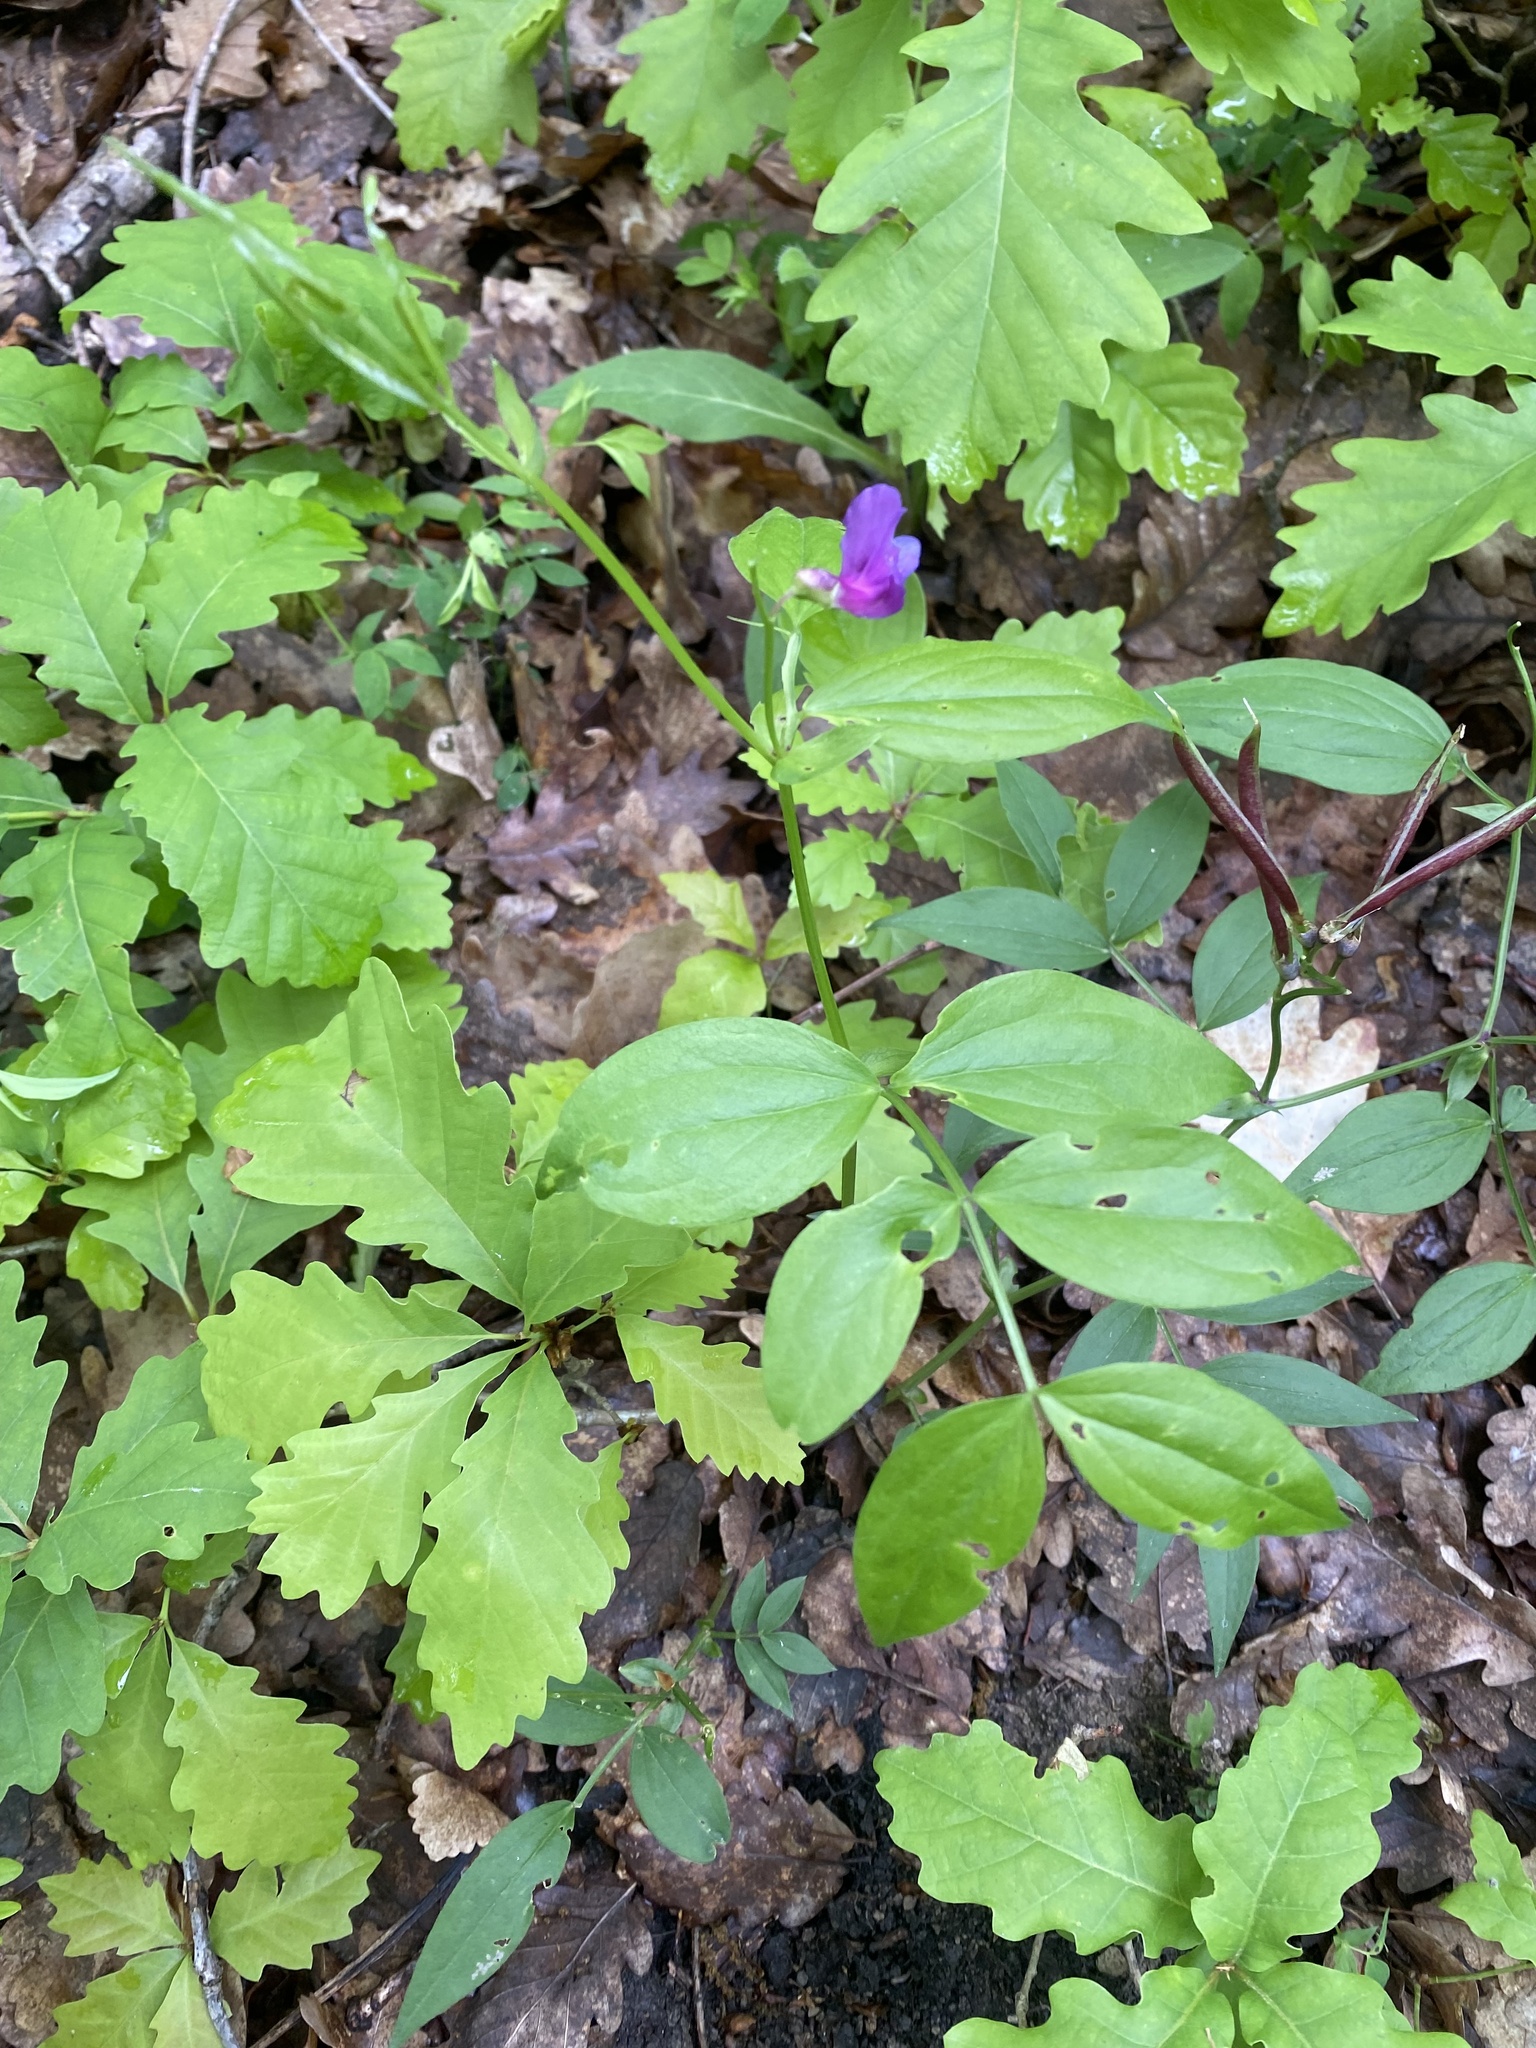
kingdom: Plantae
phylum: Tracheophyta
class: Magnoliopsida
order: Fabales
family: Fabaceae
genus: Lathyrus
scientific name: Lathyrus vernus
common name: Spring pea
